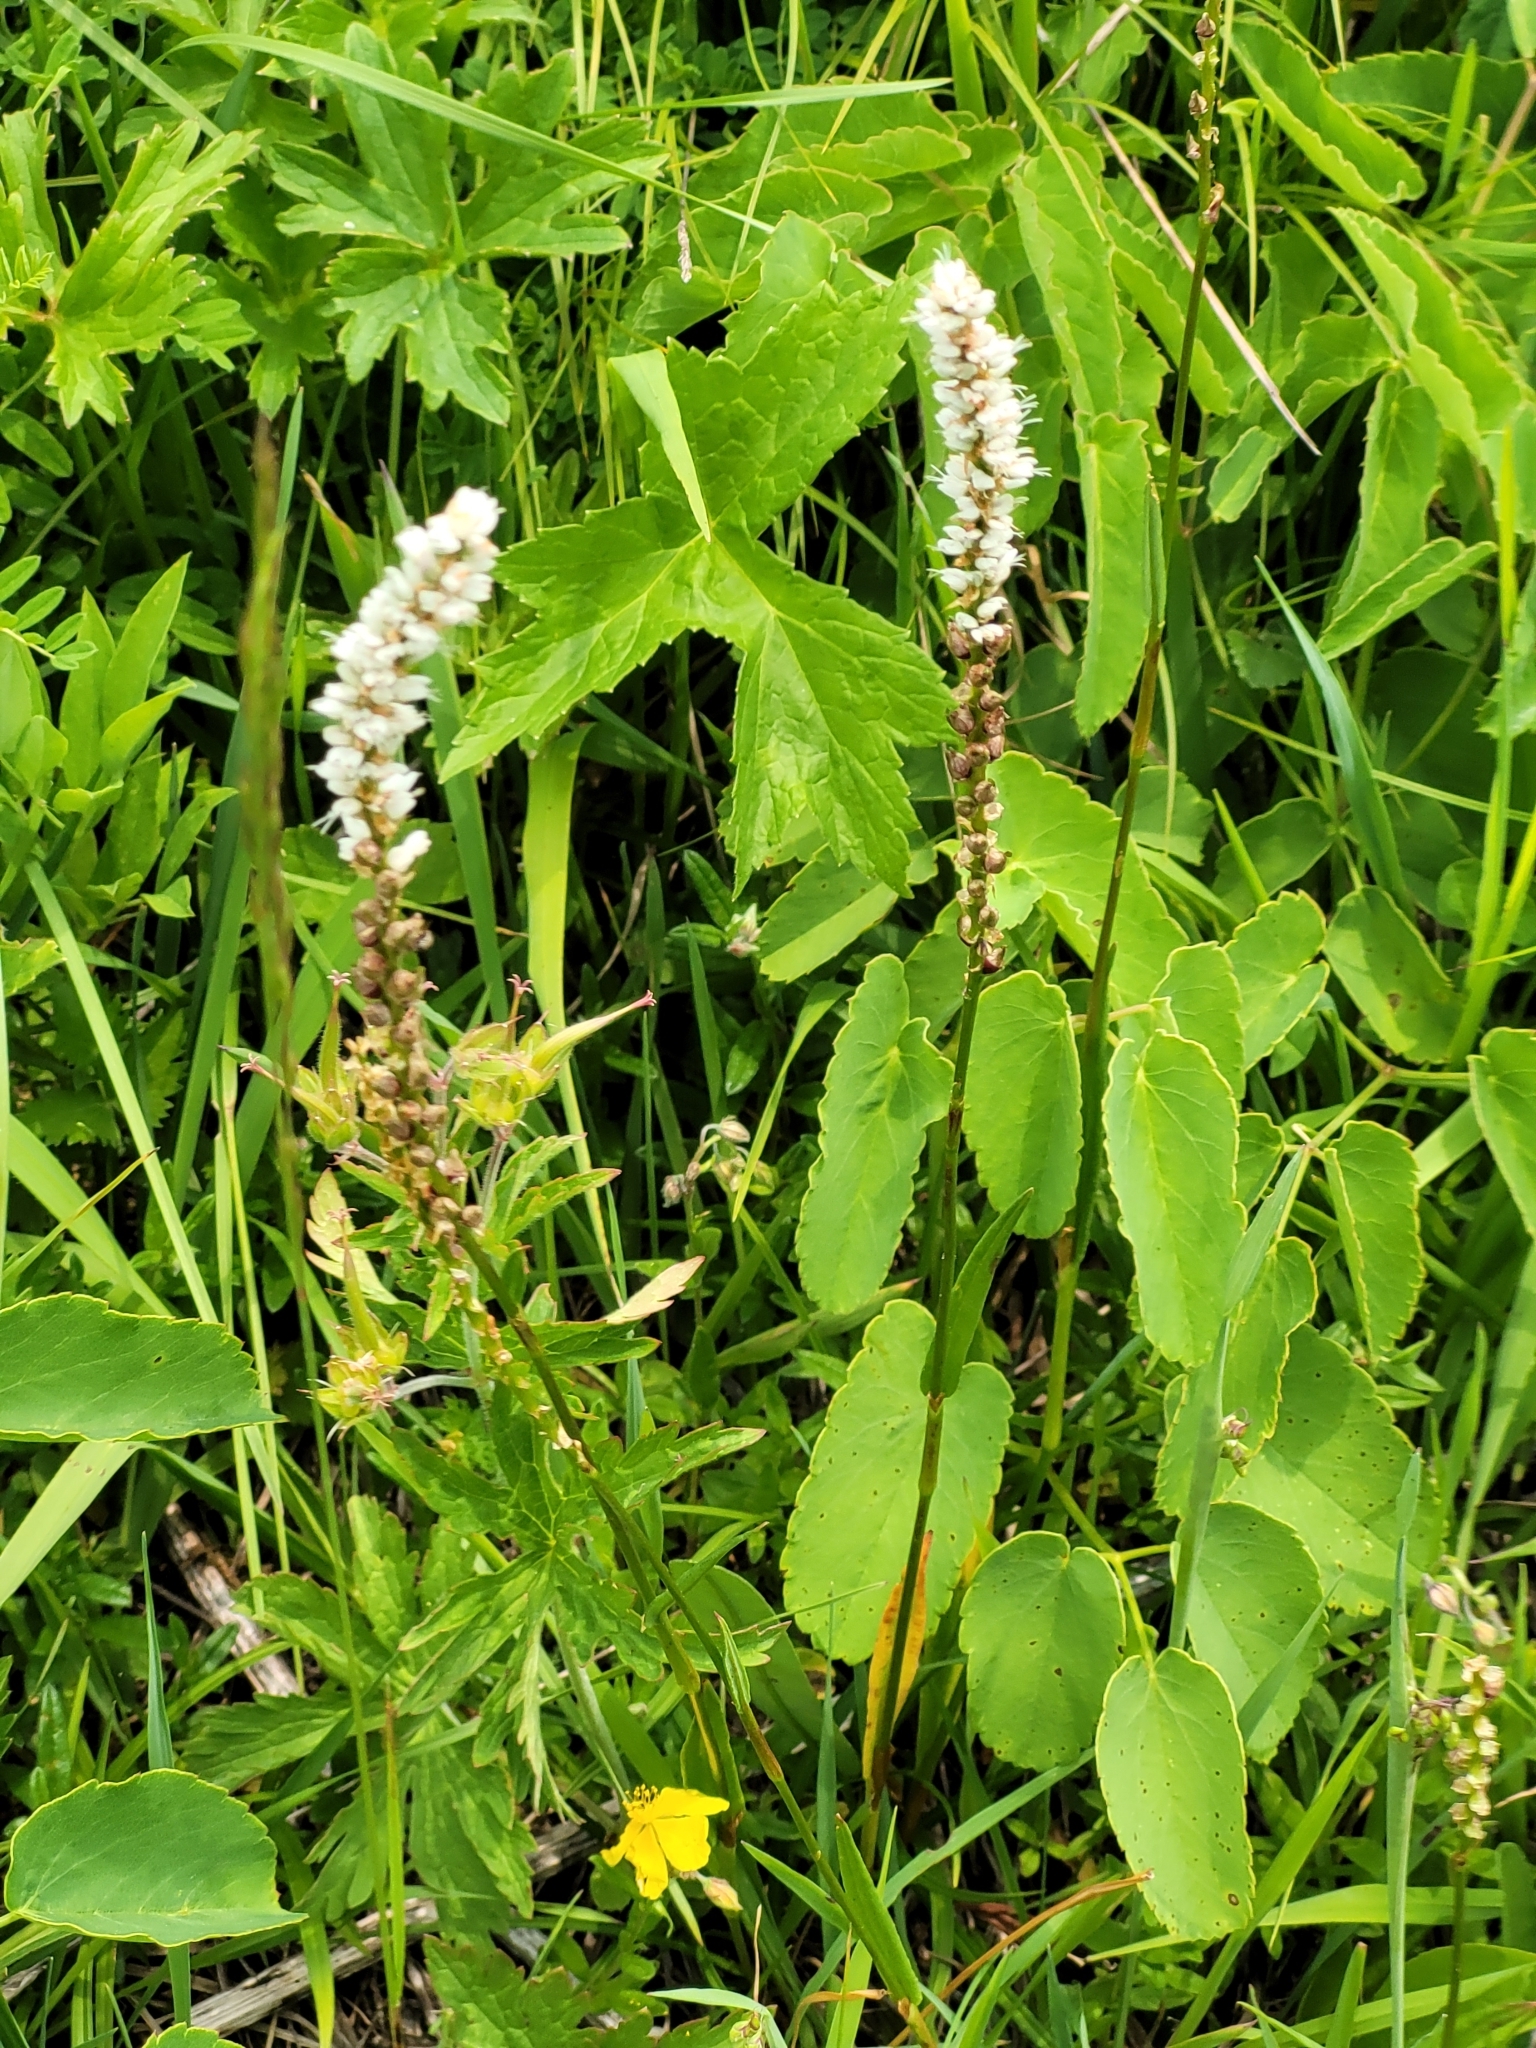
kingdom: Plantae
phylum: Tracheophyta
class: Magnoliopsida
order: Caryophyllales
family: Polygonaceae
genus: Bistorta
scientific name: Bistorta vivipara
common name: Alpine bistort
